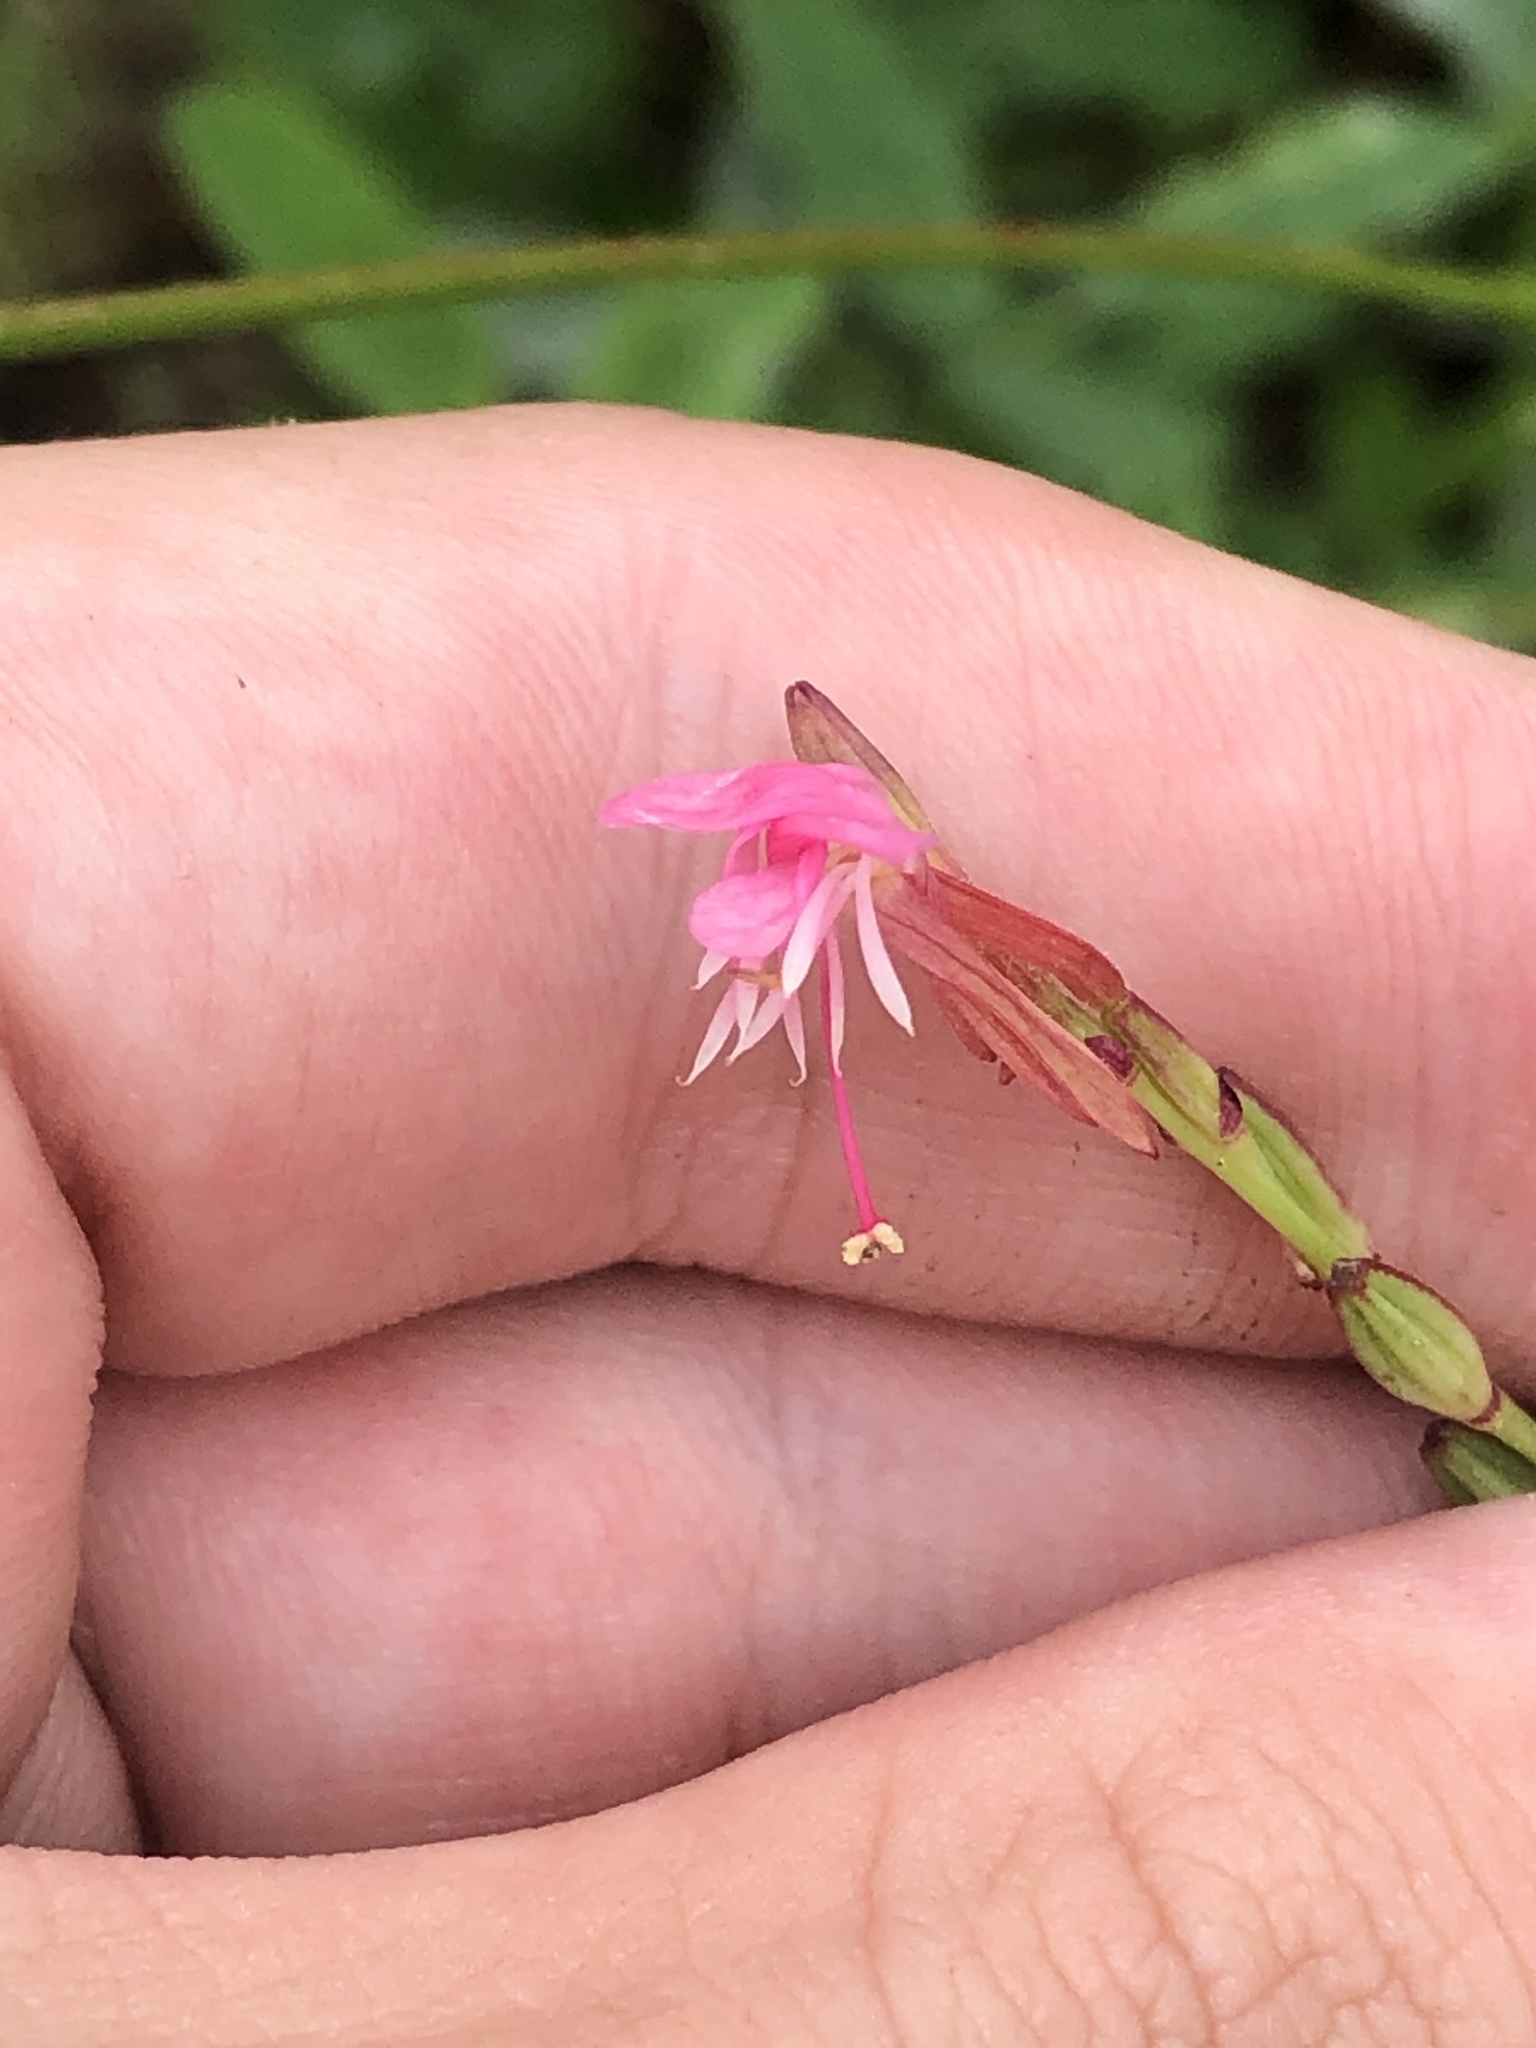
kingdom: Plantae
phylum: Tracheophyta
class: Magnoliopsida
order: Myrtales
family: Onagraceae
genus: Oenothera
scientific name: Oenothera podocarpa
